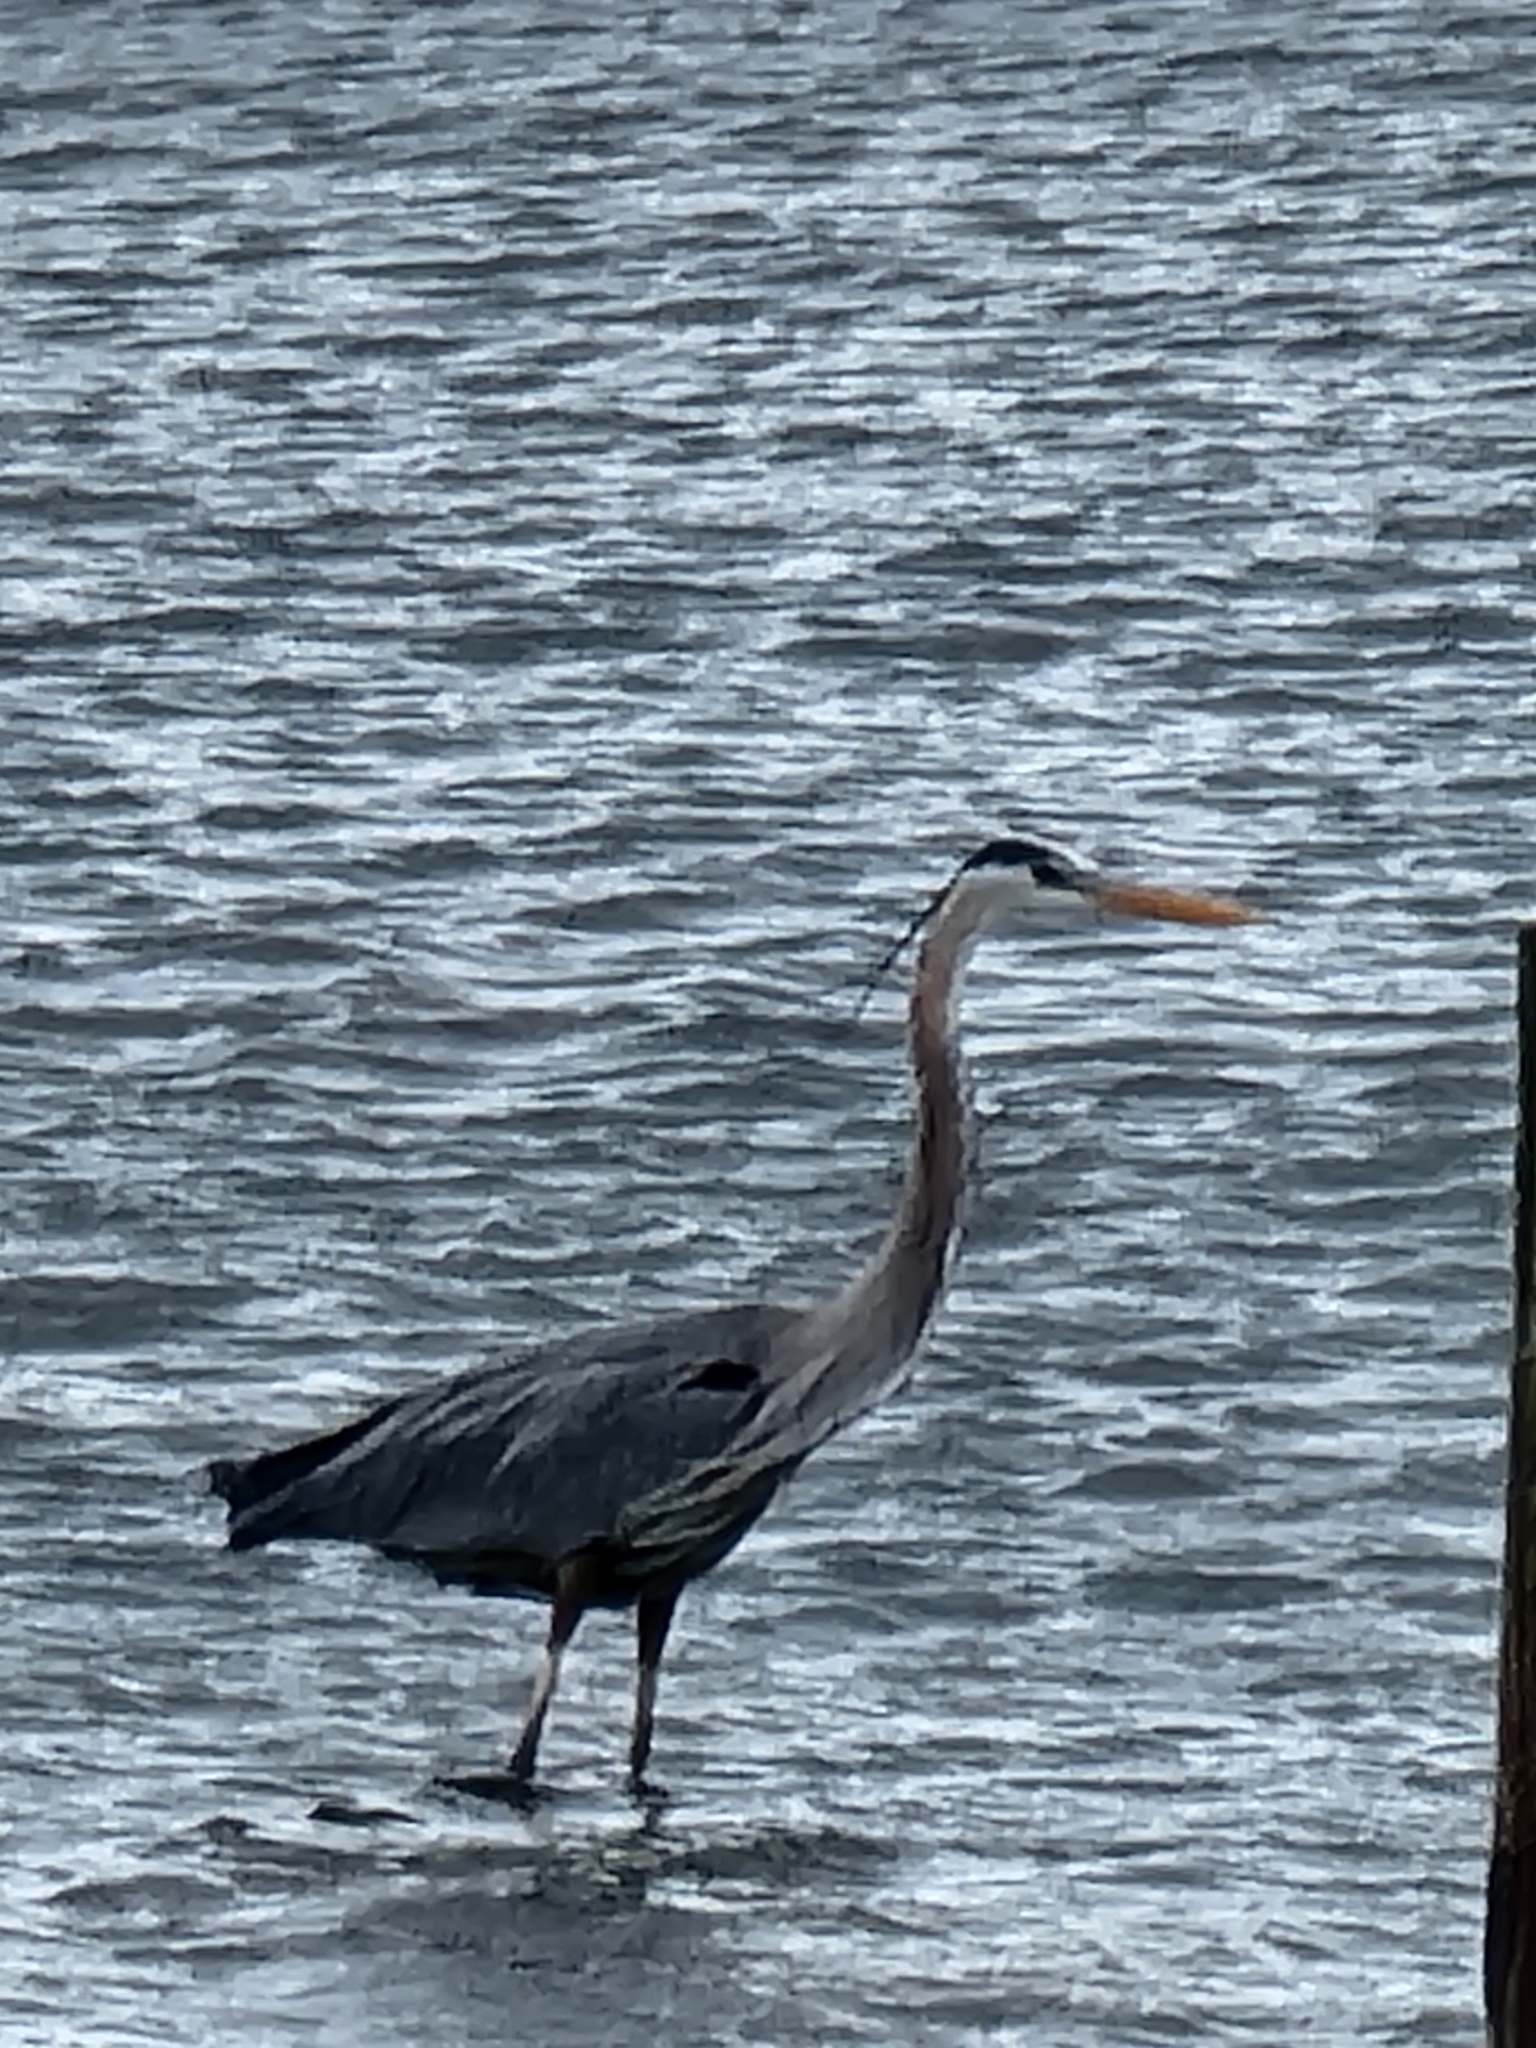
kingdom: Animalia
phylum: Chordata
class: Aves
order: Pelecaniformes
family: Ardeidae
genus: Ardea
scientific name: Ardea herodias
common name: Great blue heron
